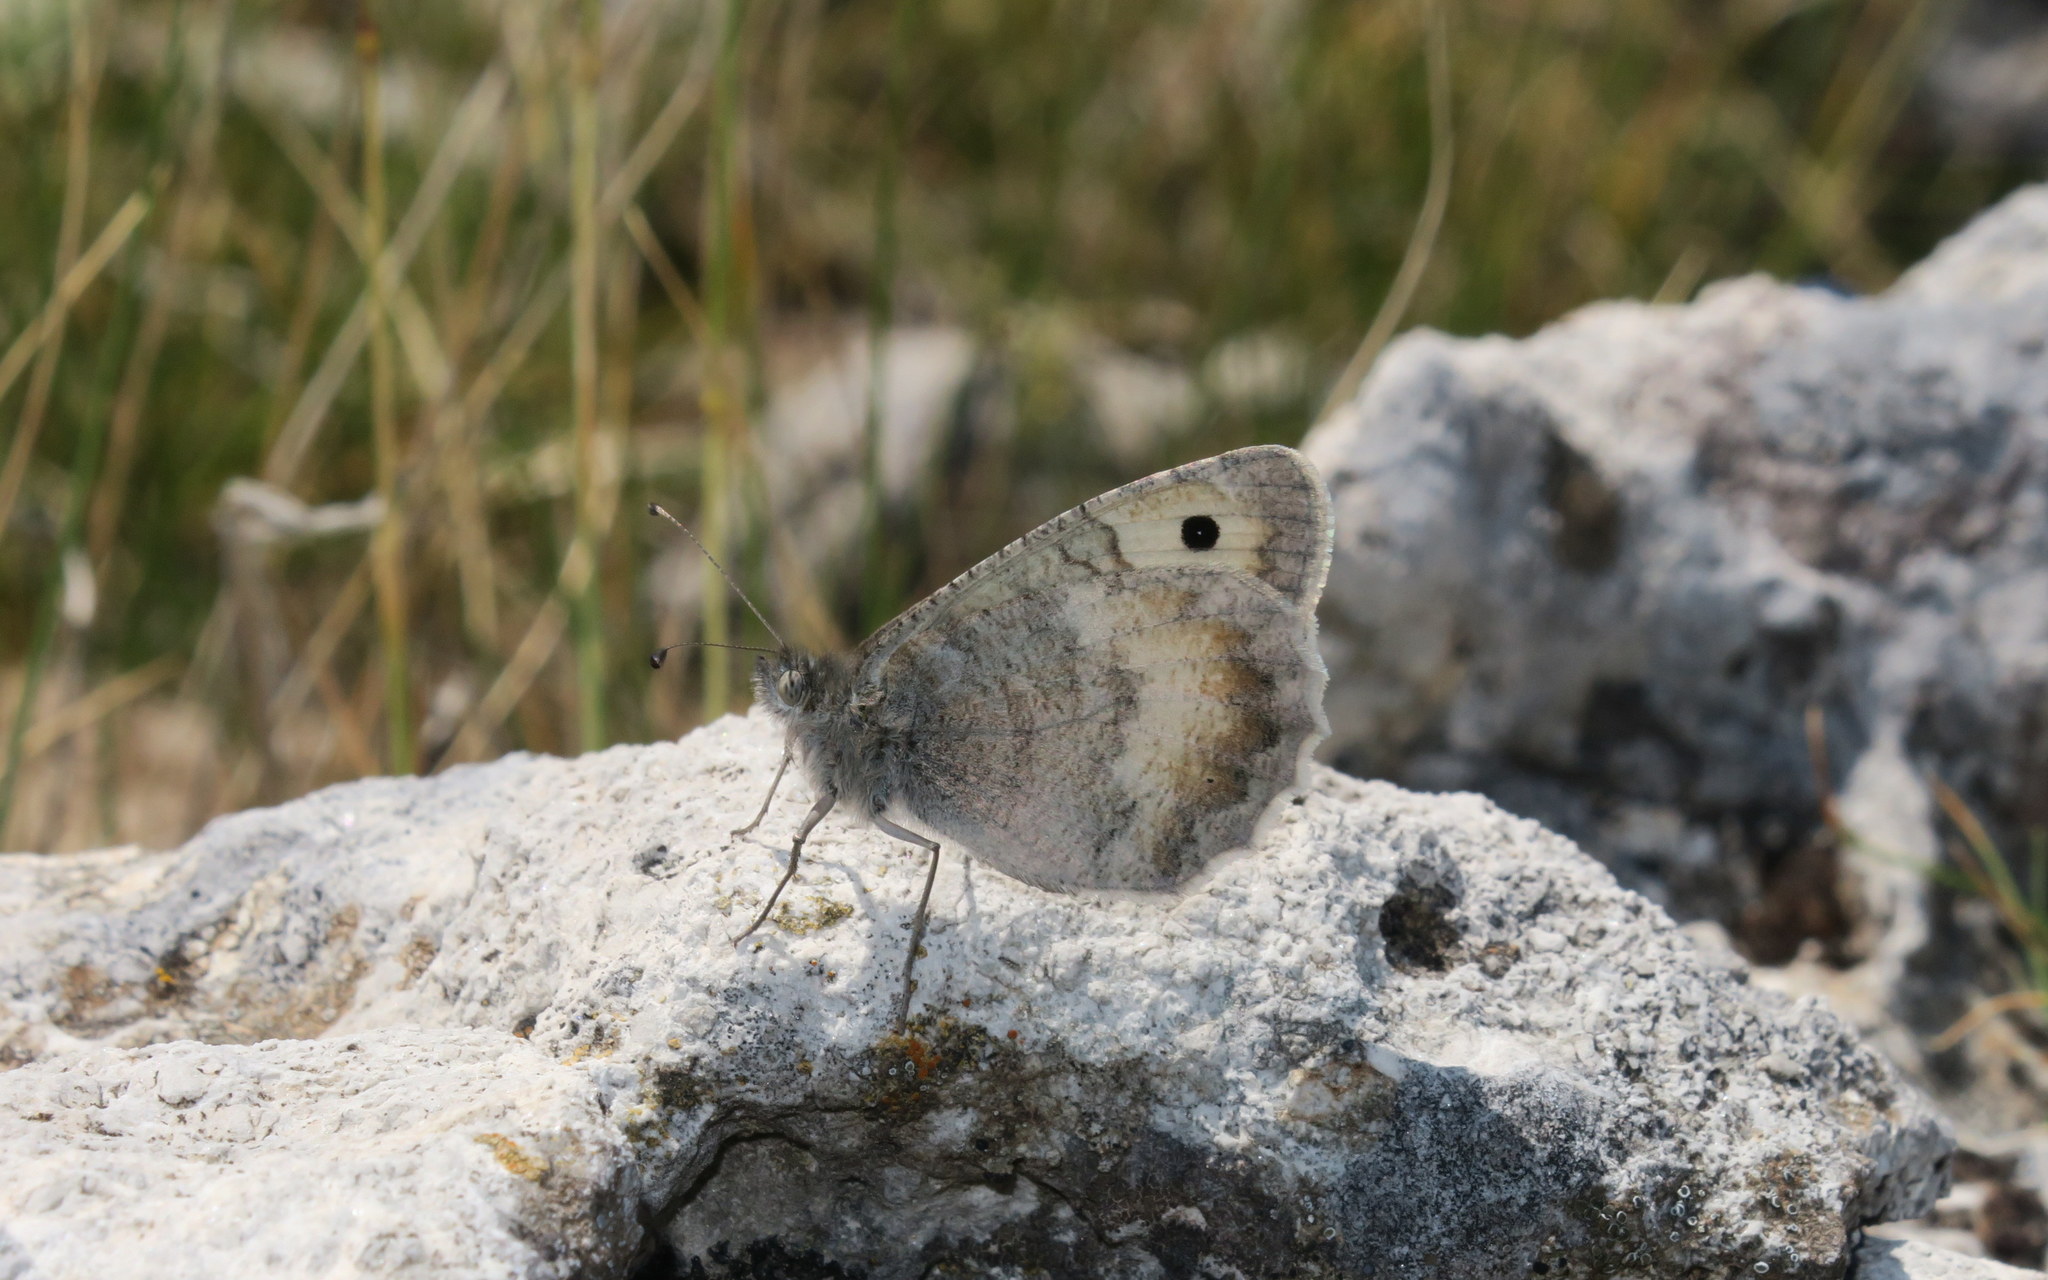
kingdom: Animalia
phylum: Arthropoda
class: Insecta
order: Lepidoptera
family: Nymphalidae
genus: Pseudochazara
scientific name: Pseudochazara graeca
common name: Grecian grayling
